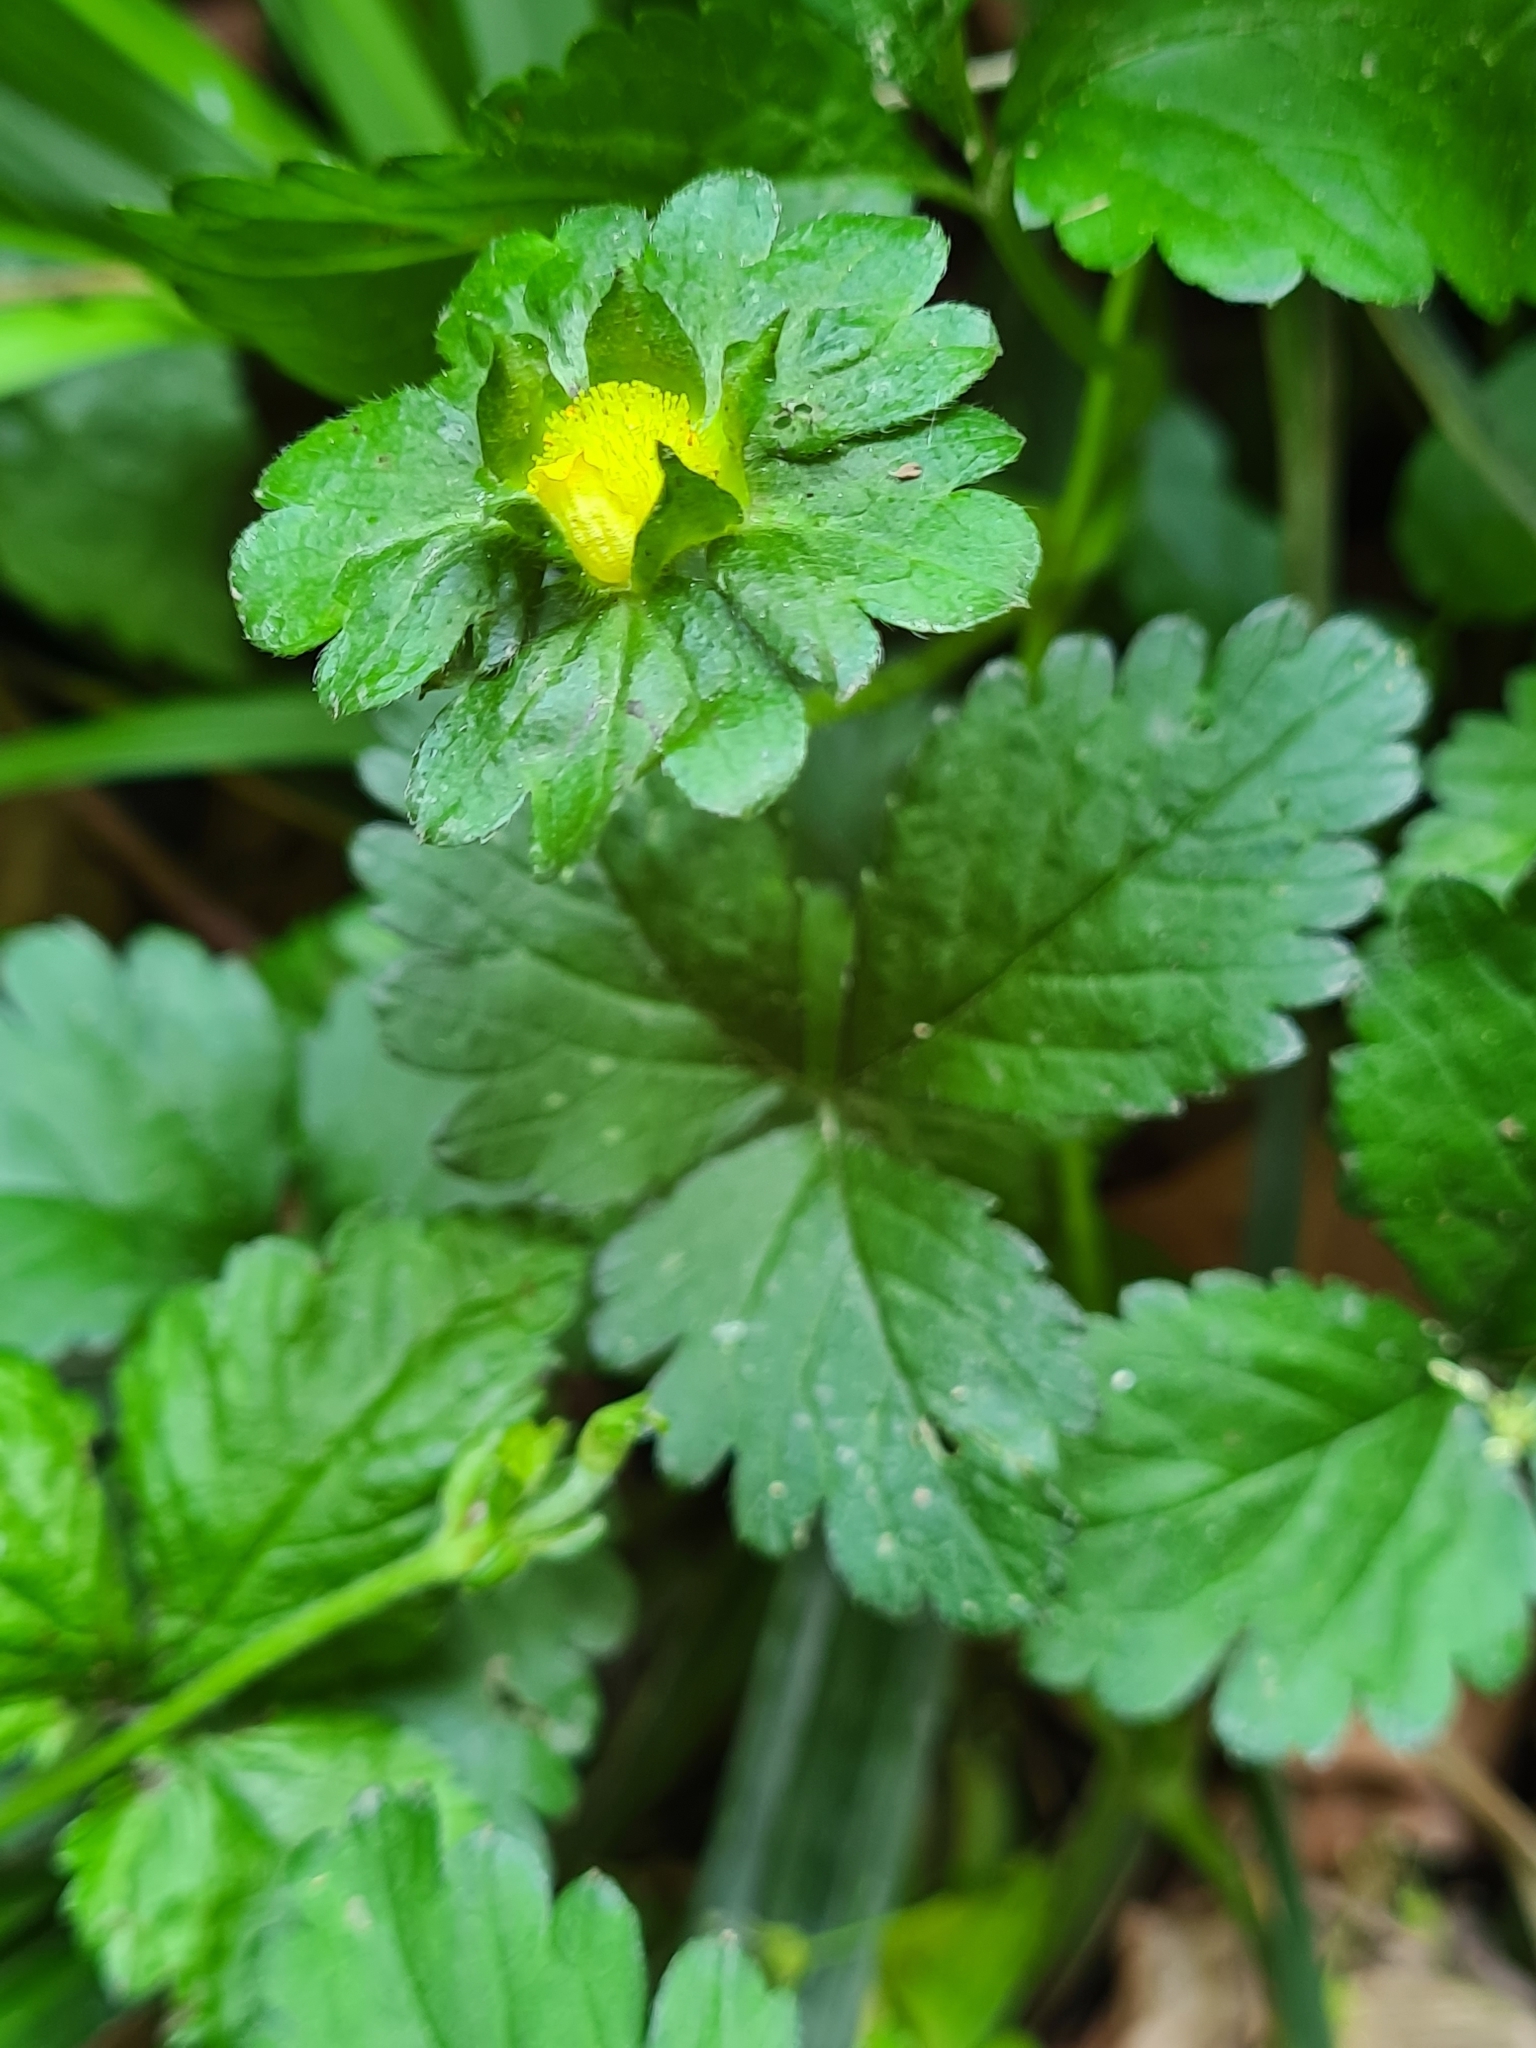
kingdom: Plantae
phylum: Tracheophyta
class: Magnoliopsida
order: Rosales
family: Rosaceae
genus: Potentilla
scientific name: Potentilla indica
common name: Yellow-flowered strawberry
